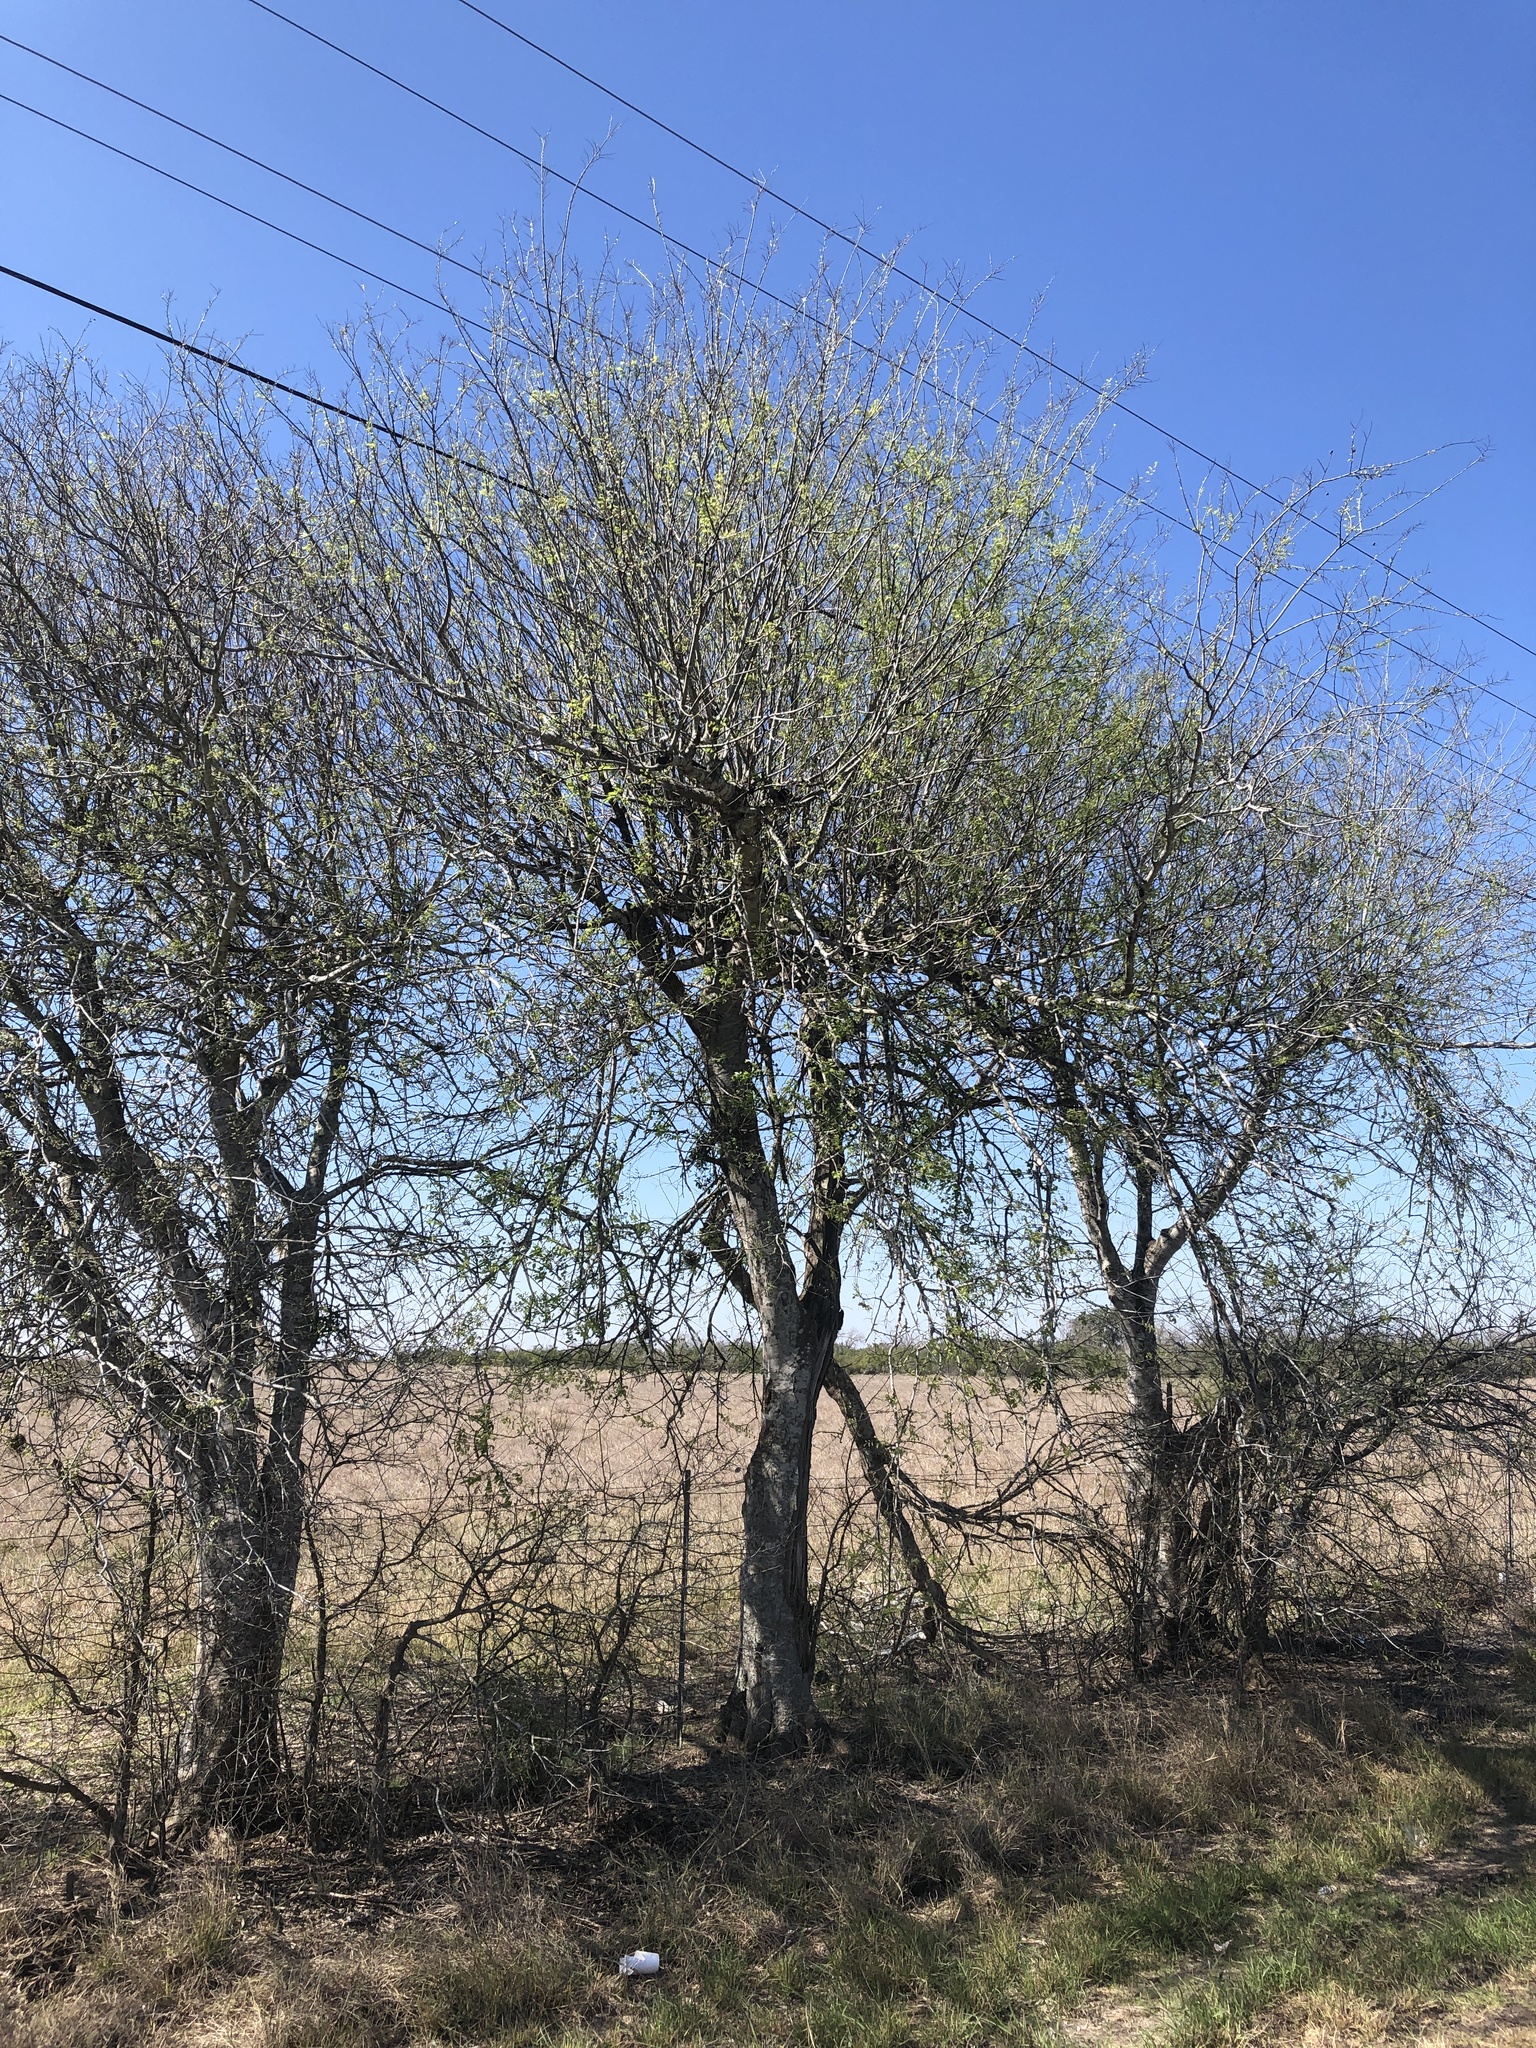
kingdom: Plantae
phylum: Tracheophyta
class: Magnoliopsida
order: Rosales
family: Cannabaceae
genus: Celtis
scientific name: Celtis laevigata
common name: Sugarberry
